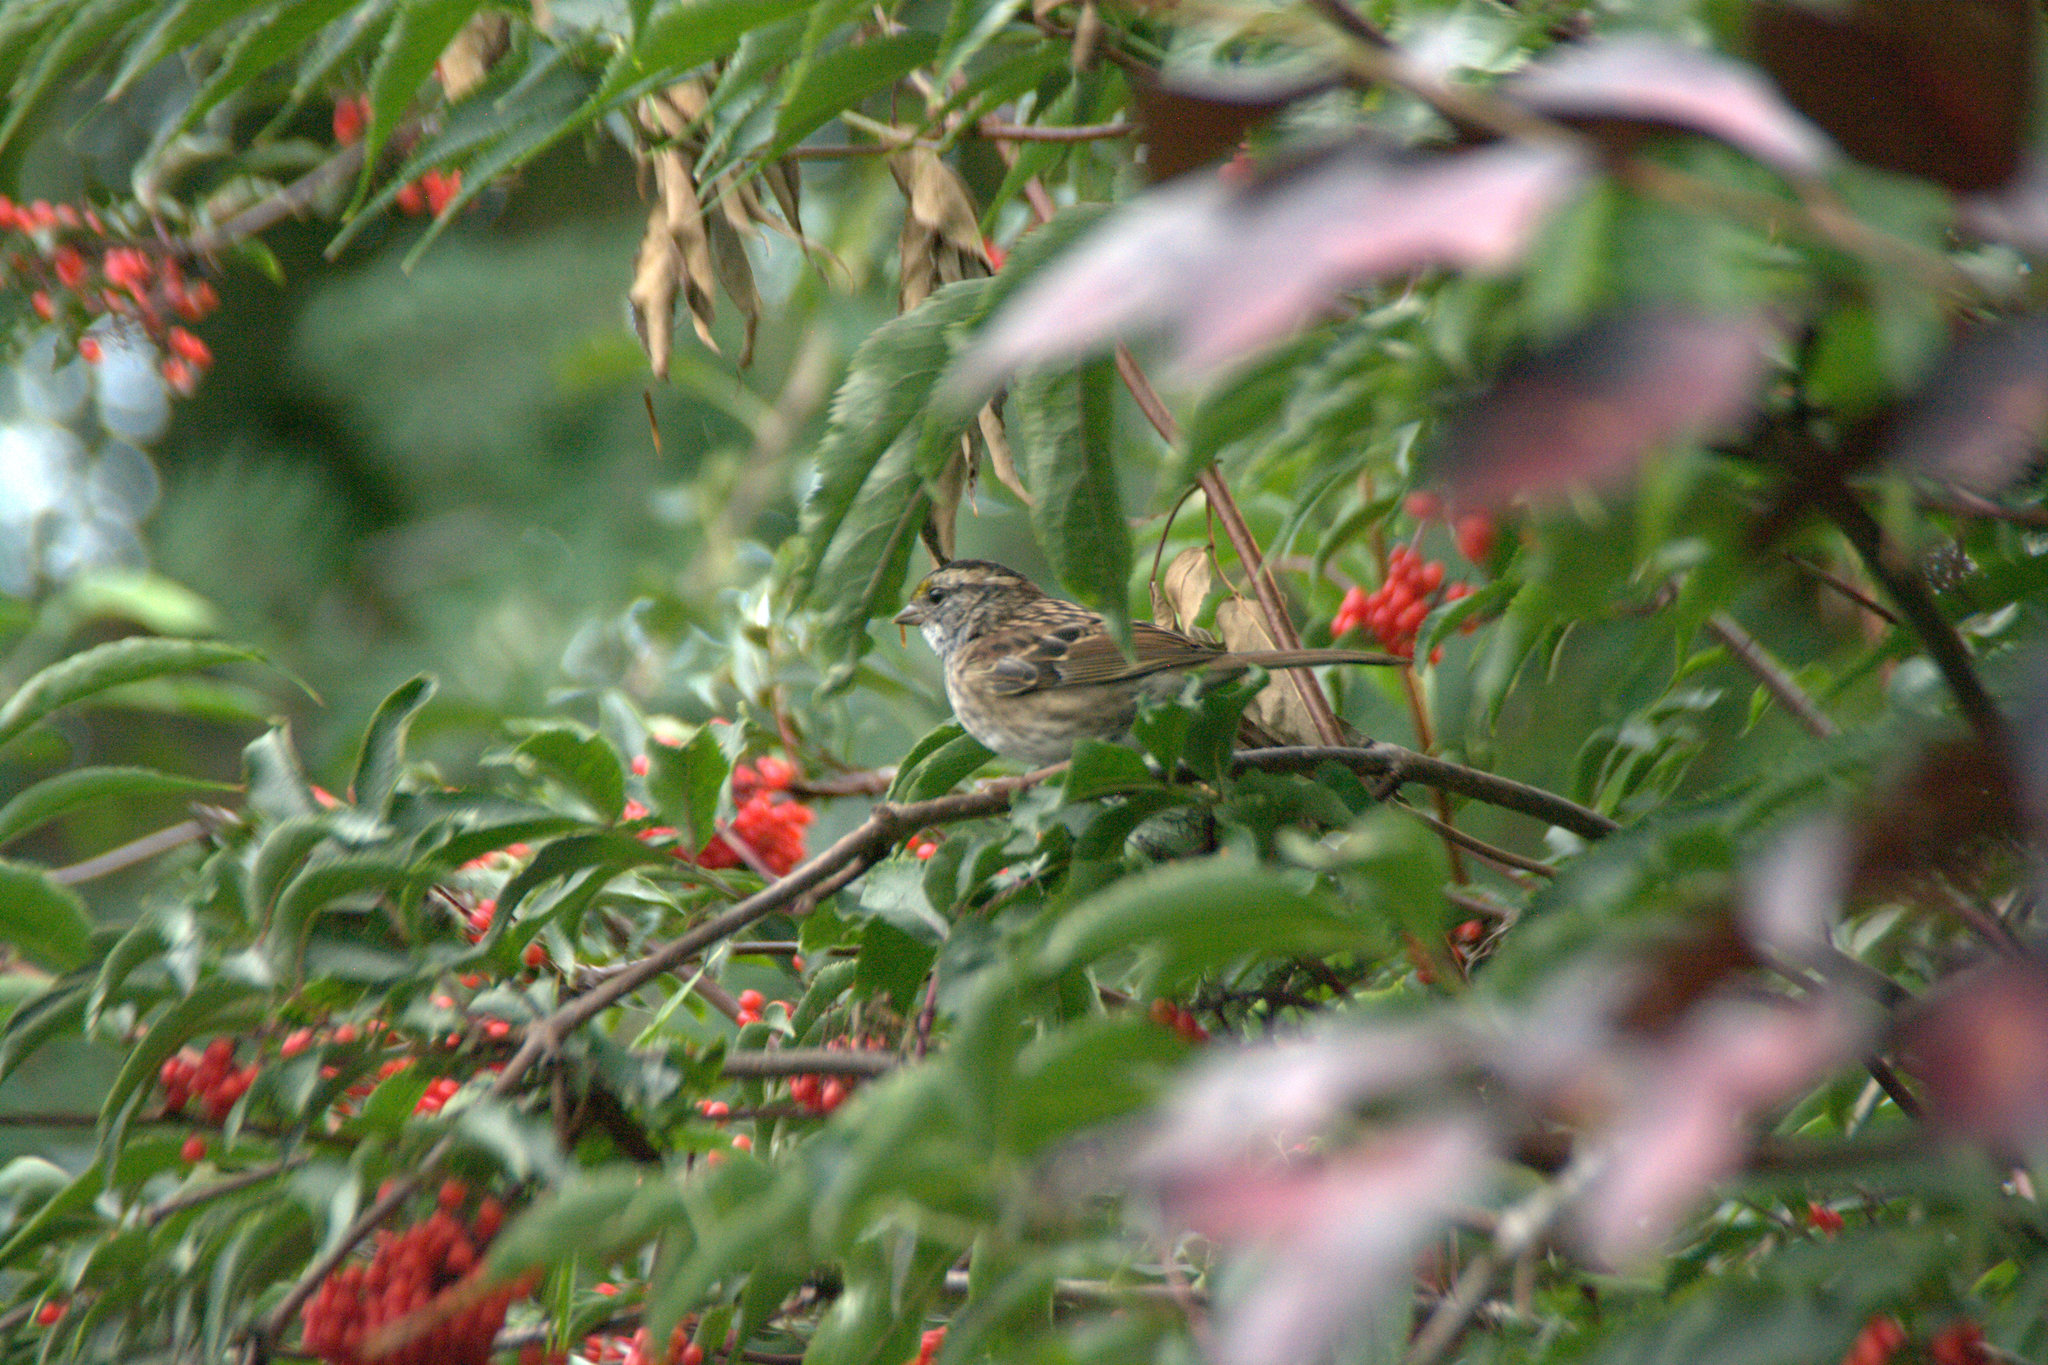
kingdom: Animalia
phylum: Chordata
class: Aves
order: Passeriformes
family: Passerellidae
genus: Zonotrichia
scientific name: Zonotrichia albicollis
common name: White-throated sparrow
